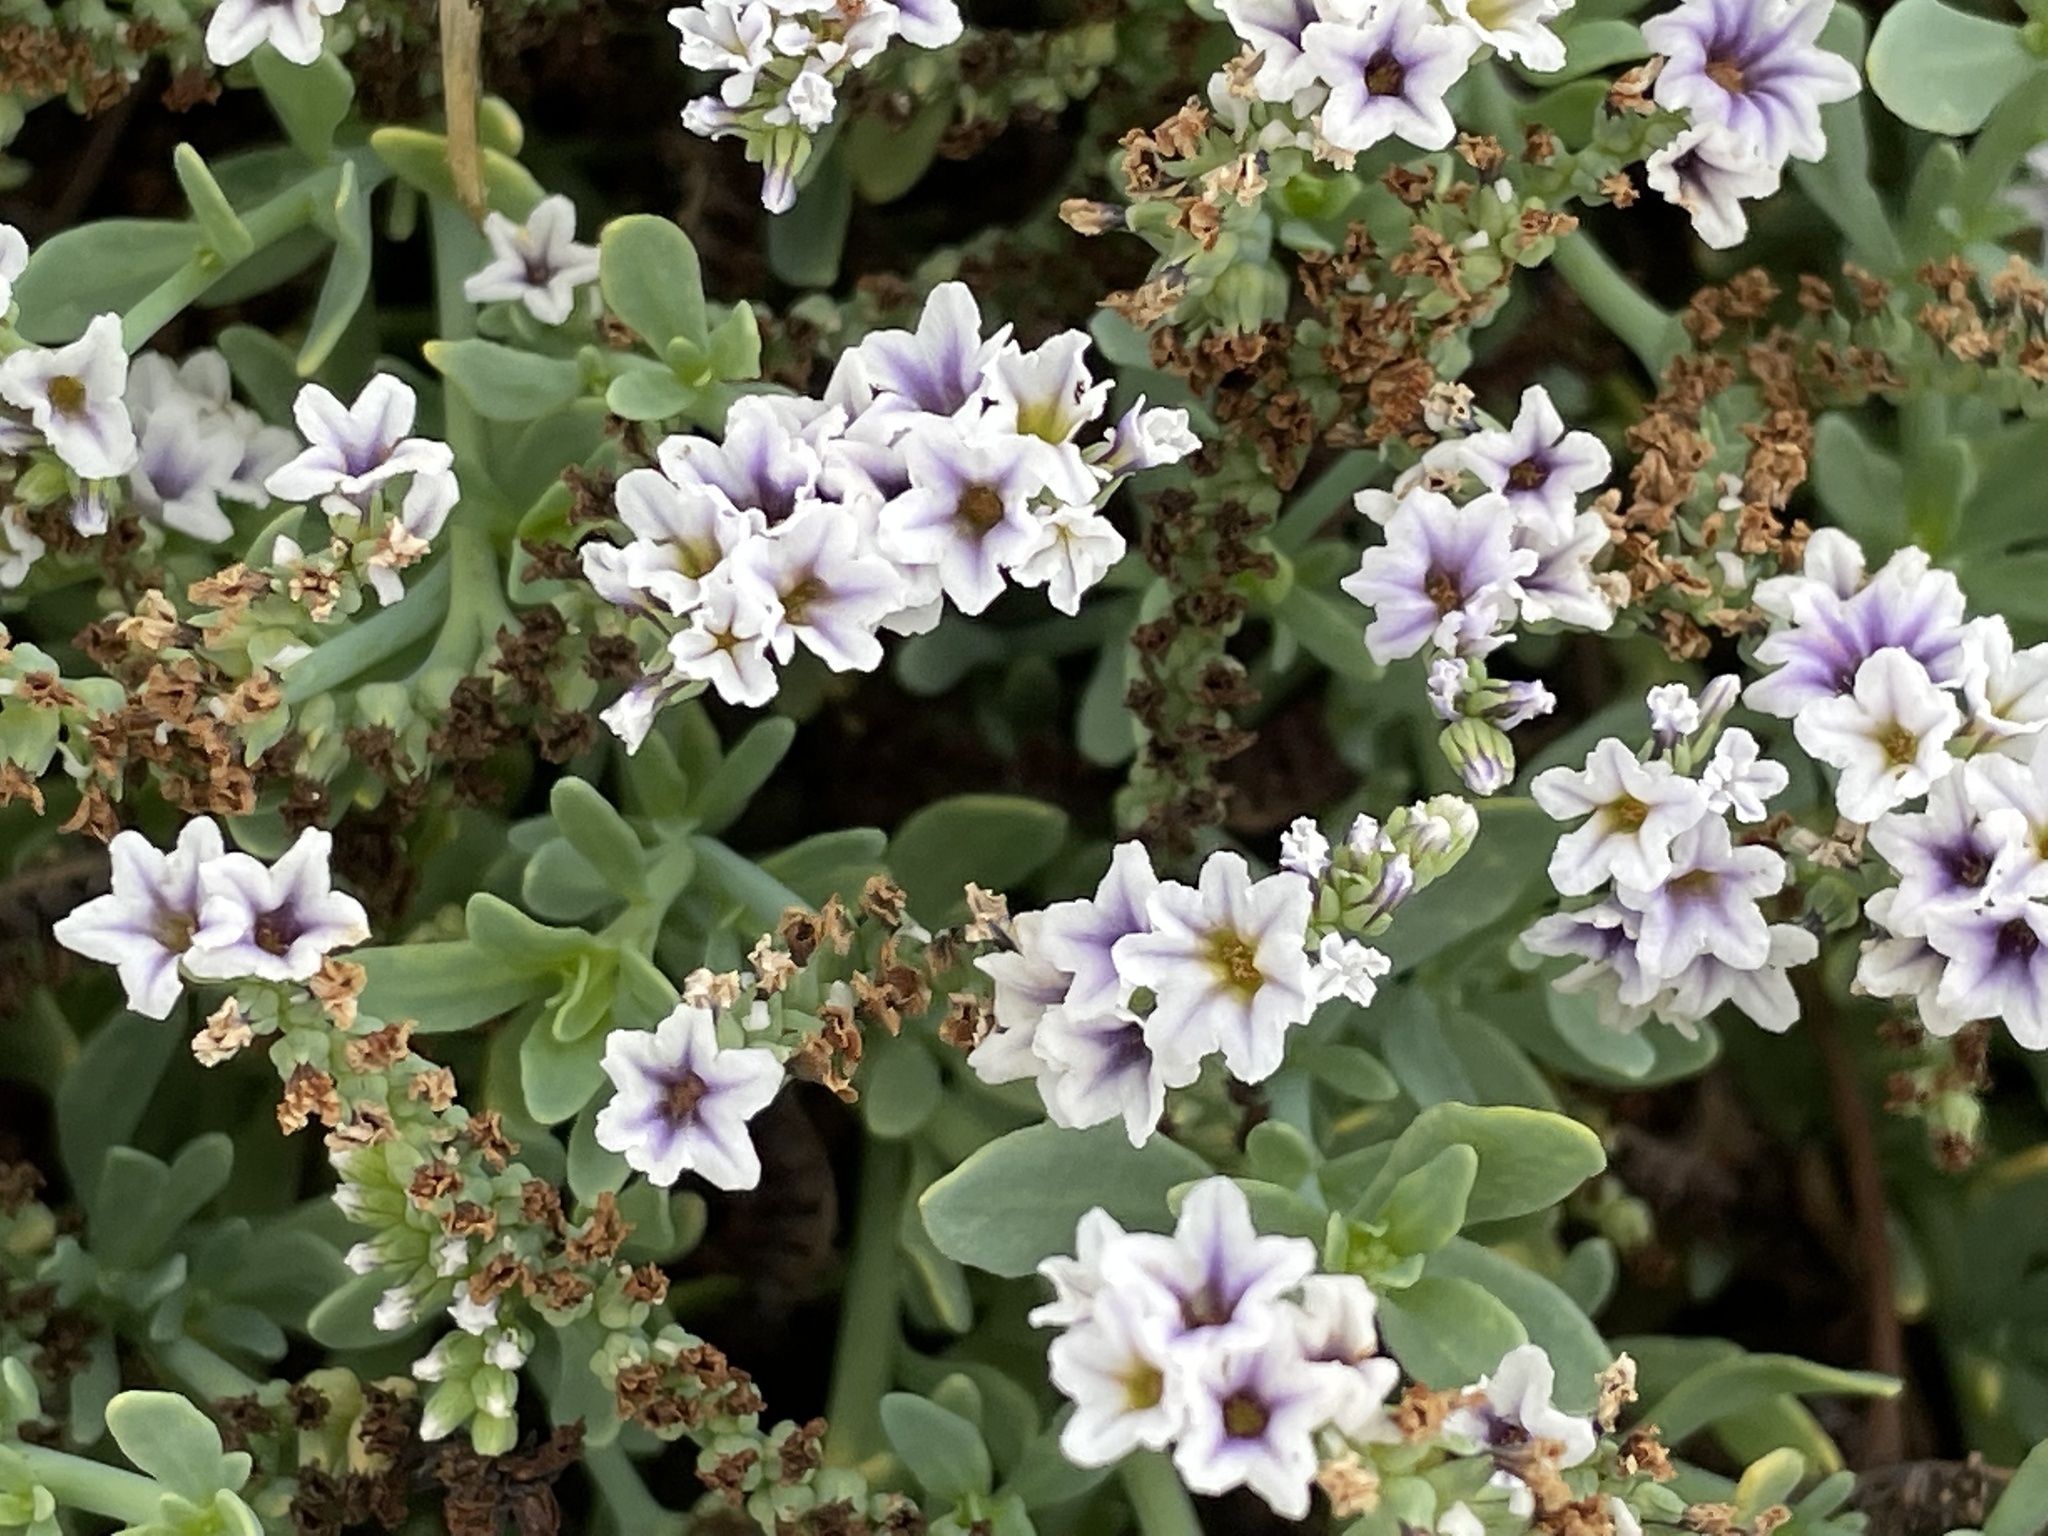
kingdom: Plantae
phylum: Tracheophyta
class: Magnoliopsida
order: Boraginales
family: Heliotropiaceae
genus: Heliotropium
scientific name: Heliotropium curassavicum
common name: Seaside heliotrope
